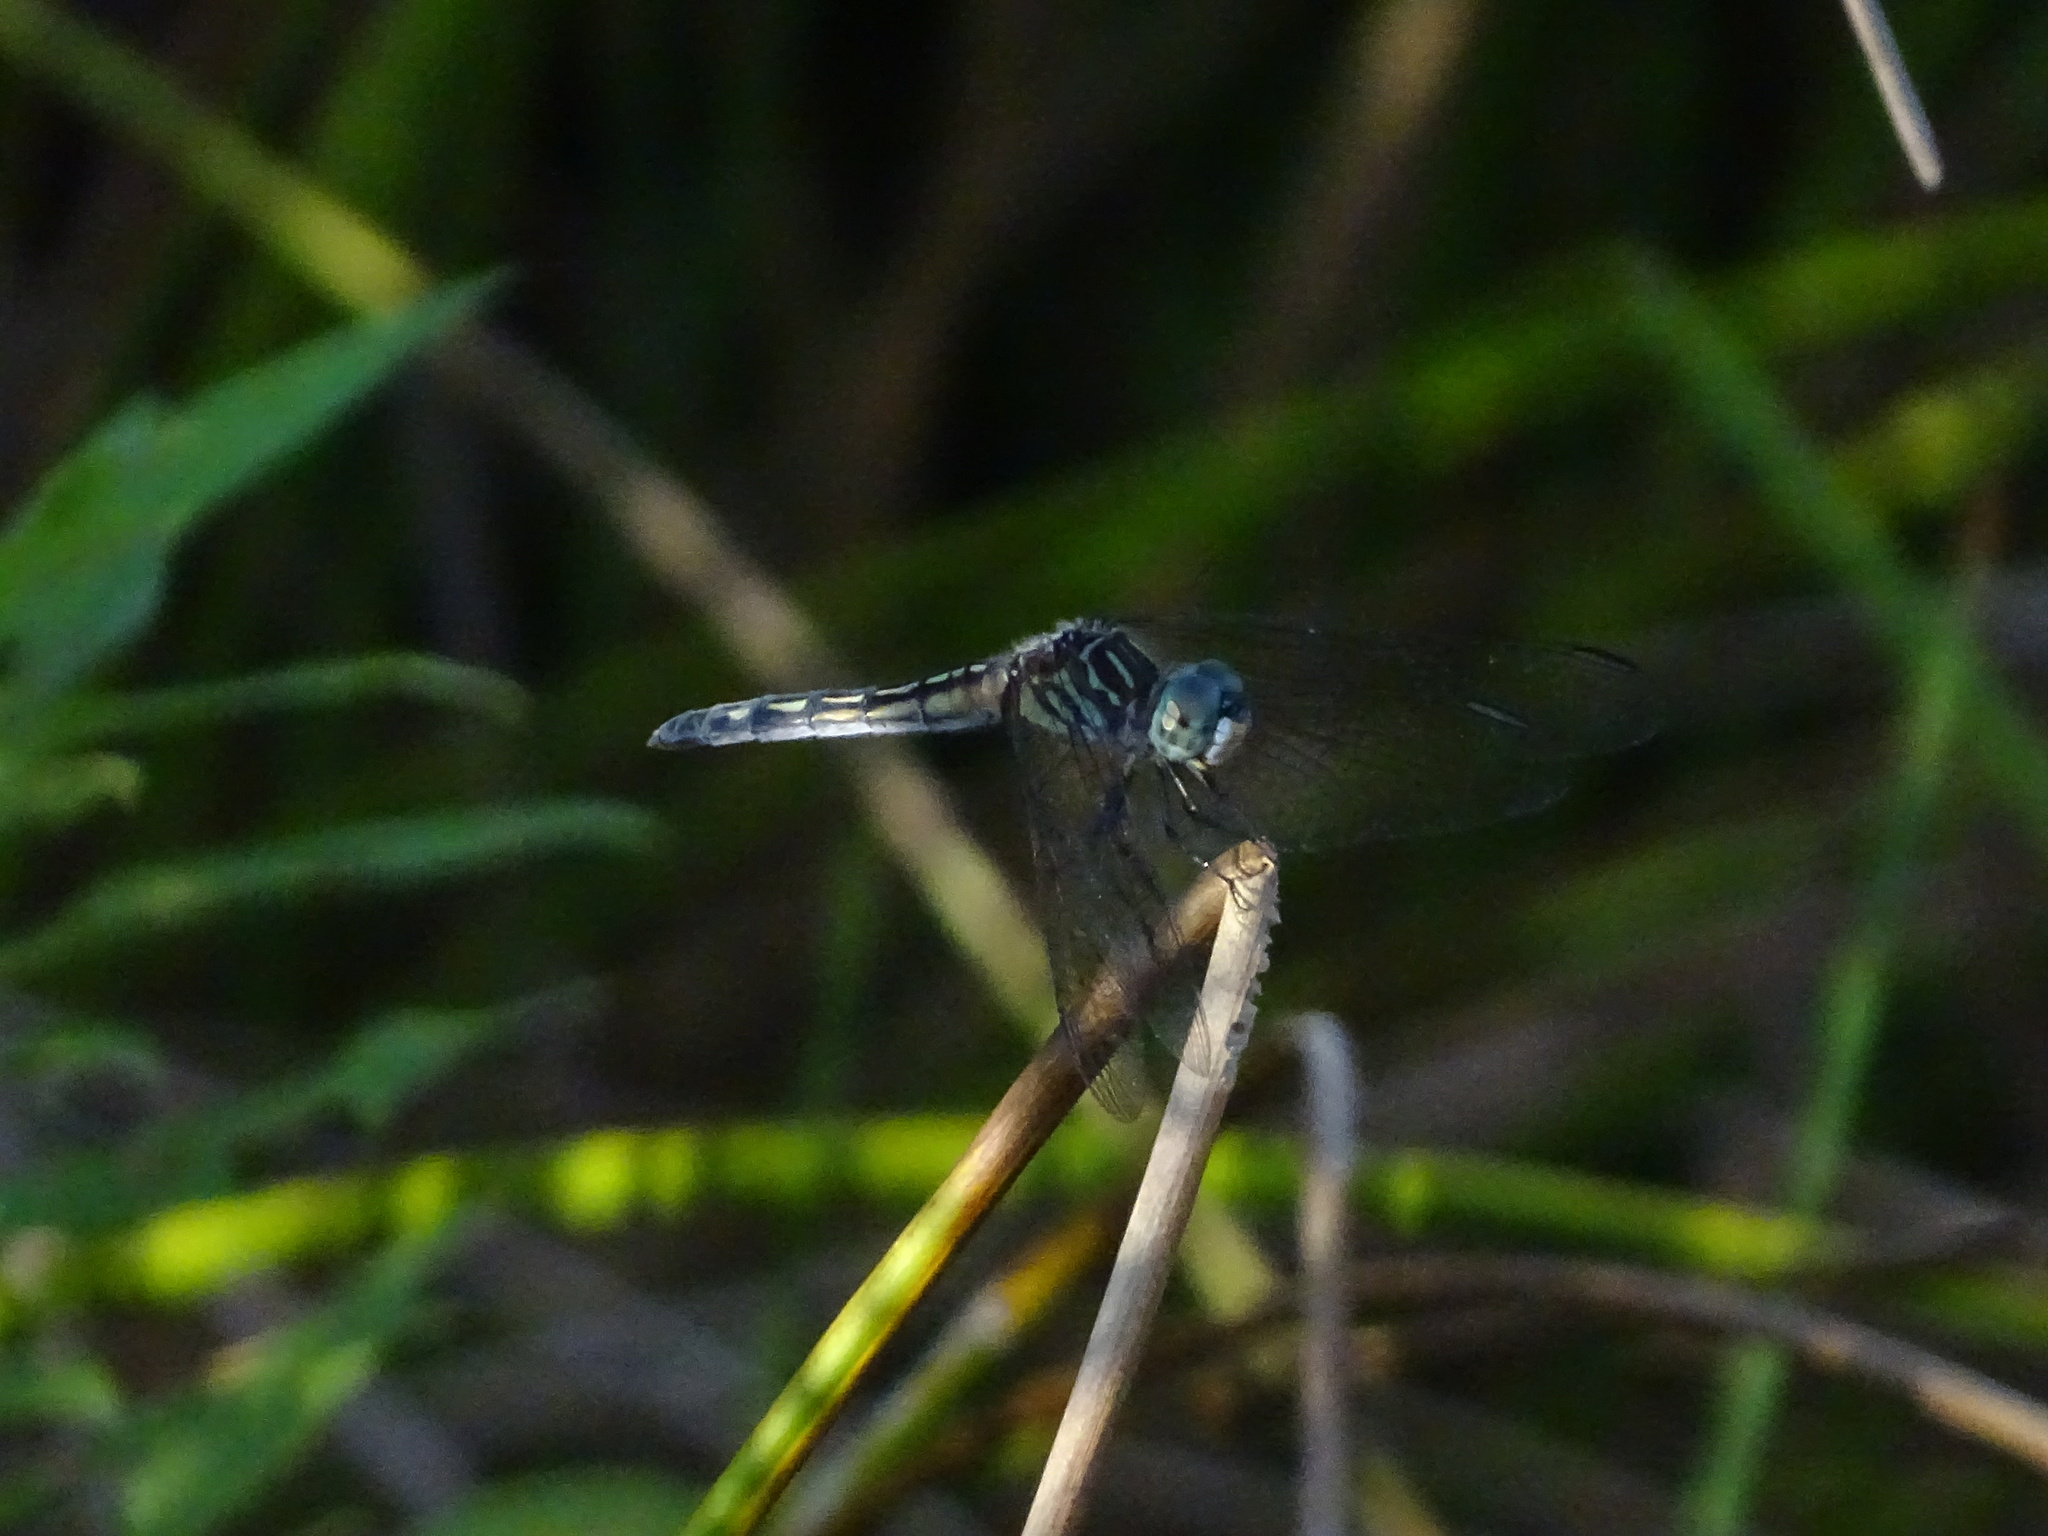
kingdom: Animalia
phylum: Arthropoda
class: Insecta
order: Odonata
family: Libellulidae
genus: Pachydiplax
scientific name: Pachydiplax longipennis
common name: Blue dasher
